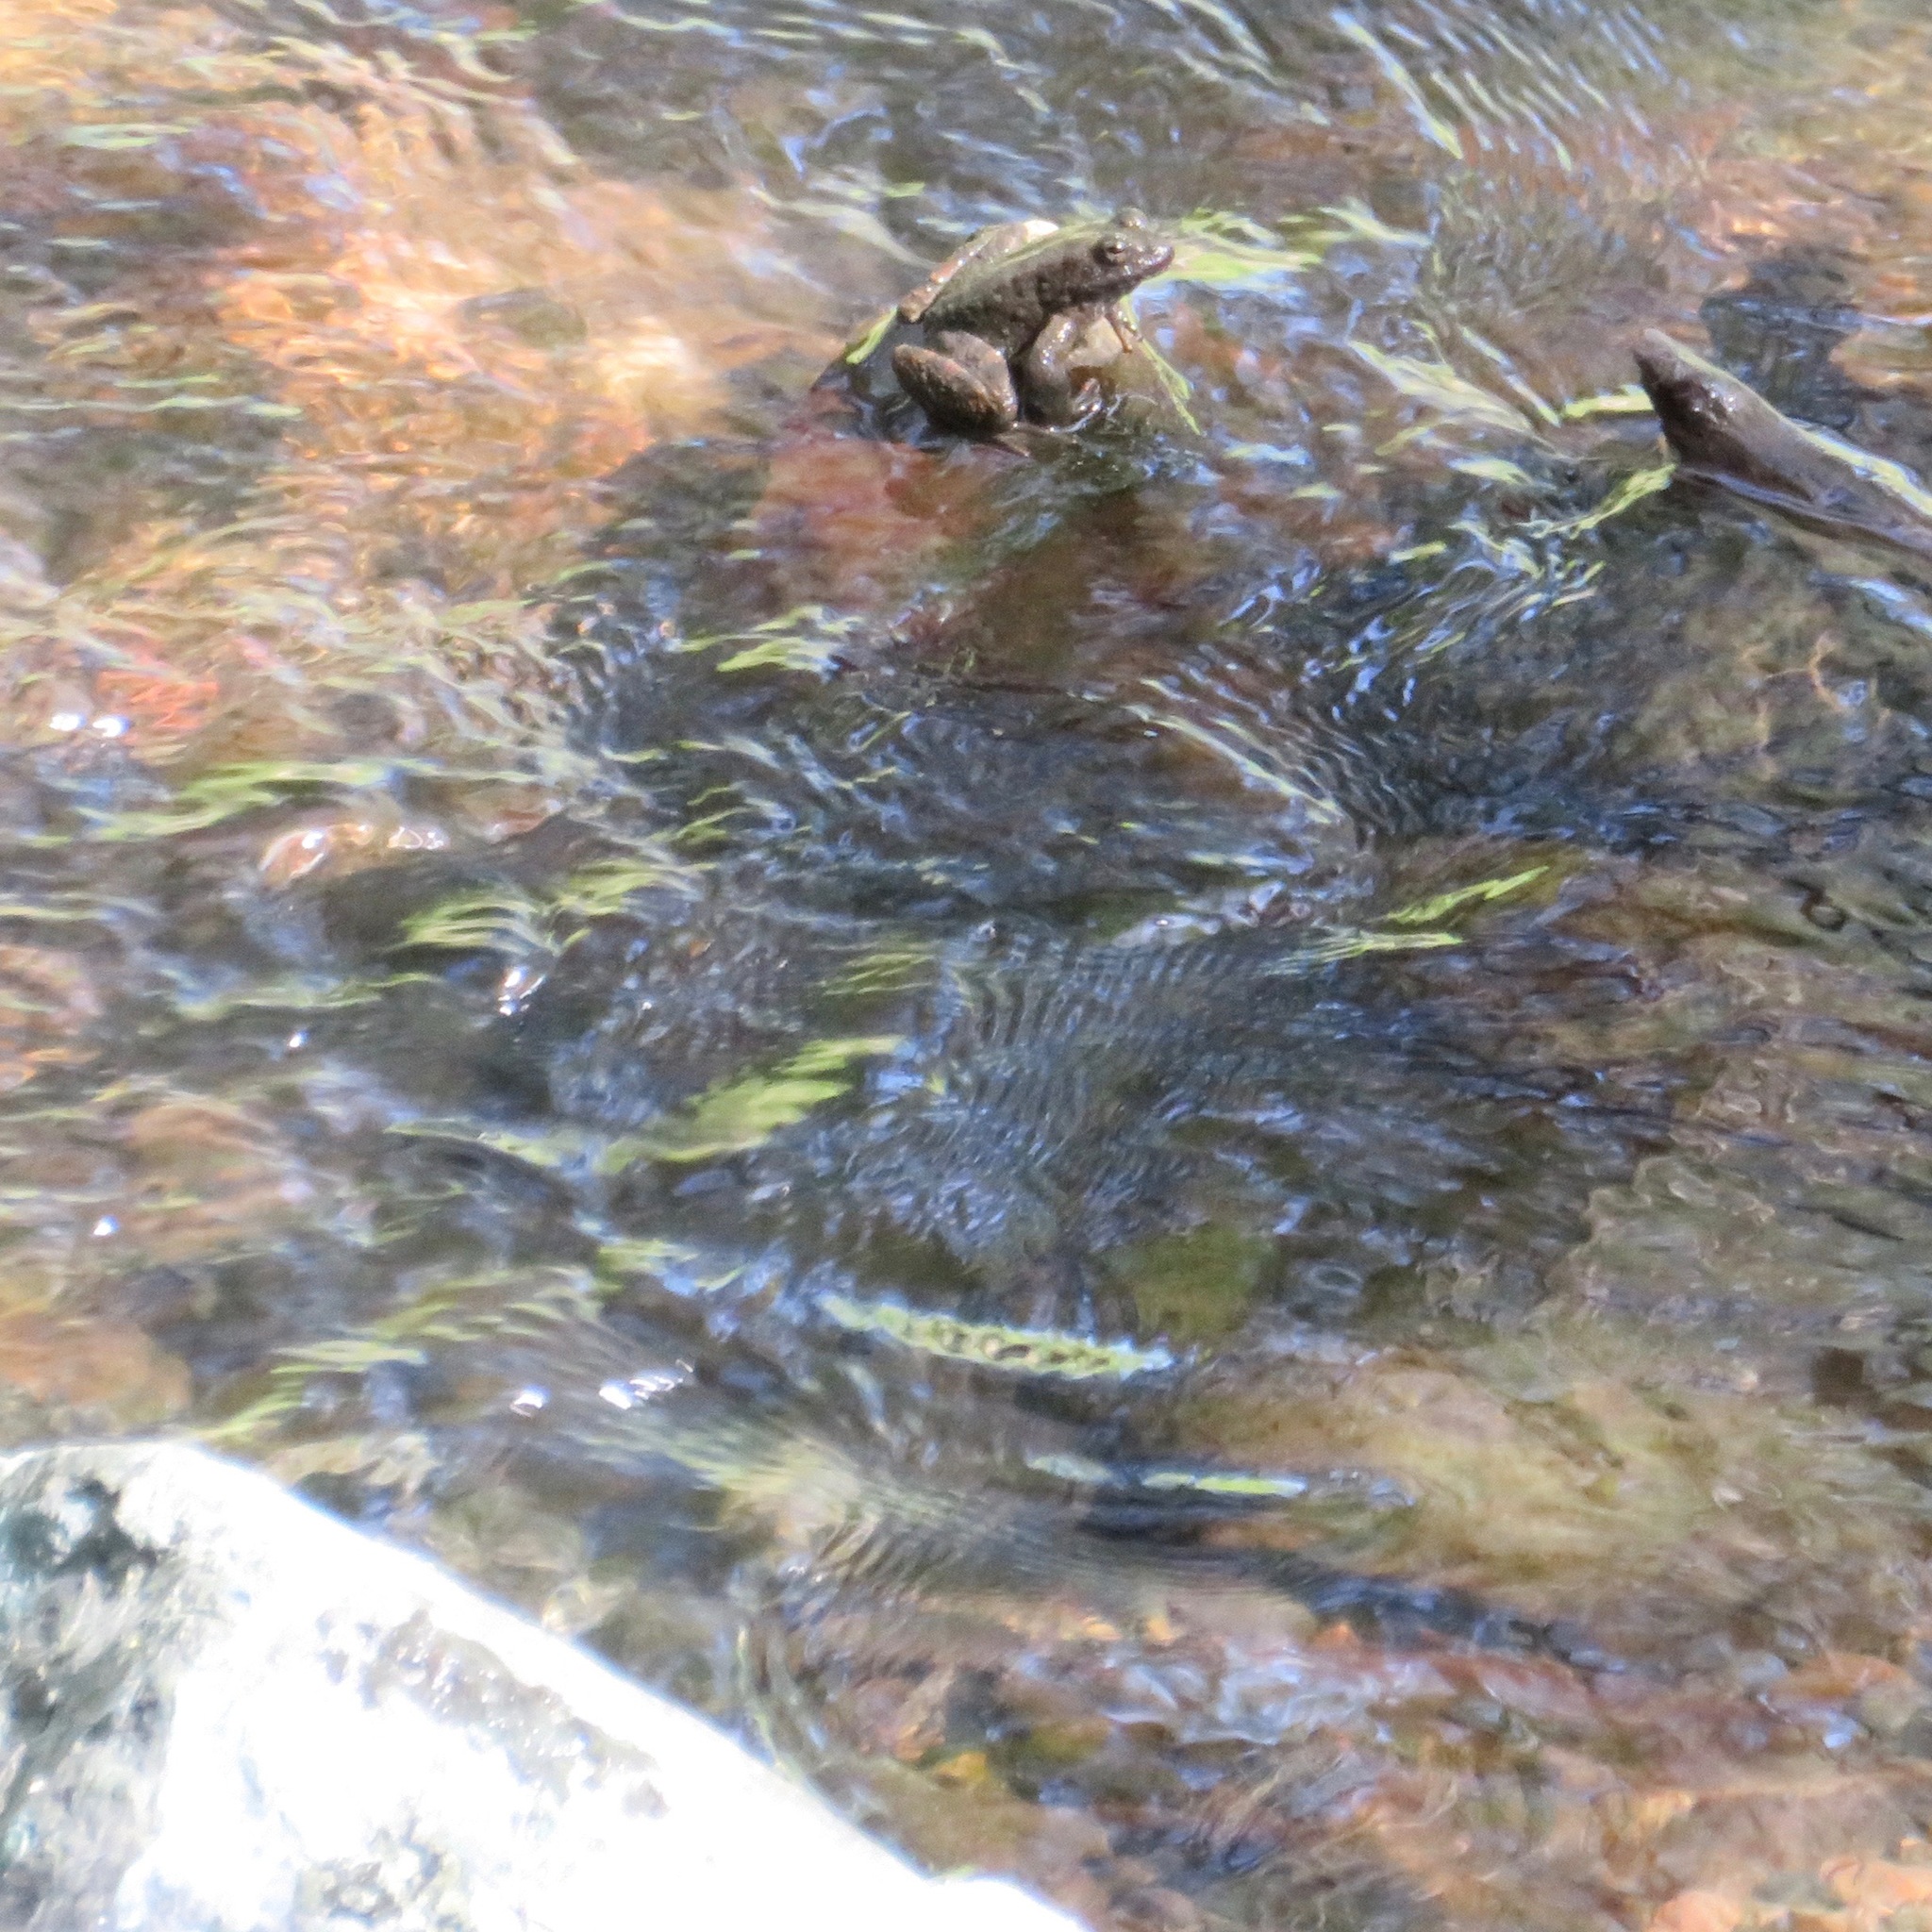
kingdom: Animalia
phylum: Chordata
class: Amphibia
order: Anura
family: Ranidae
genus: Rana
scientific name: Rana boylii
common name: Foothill yellow-legged frog
